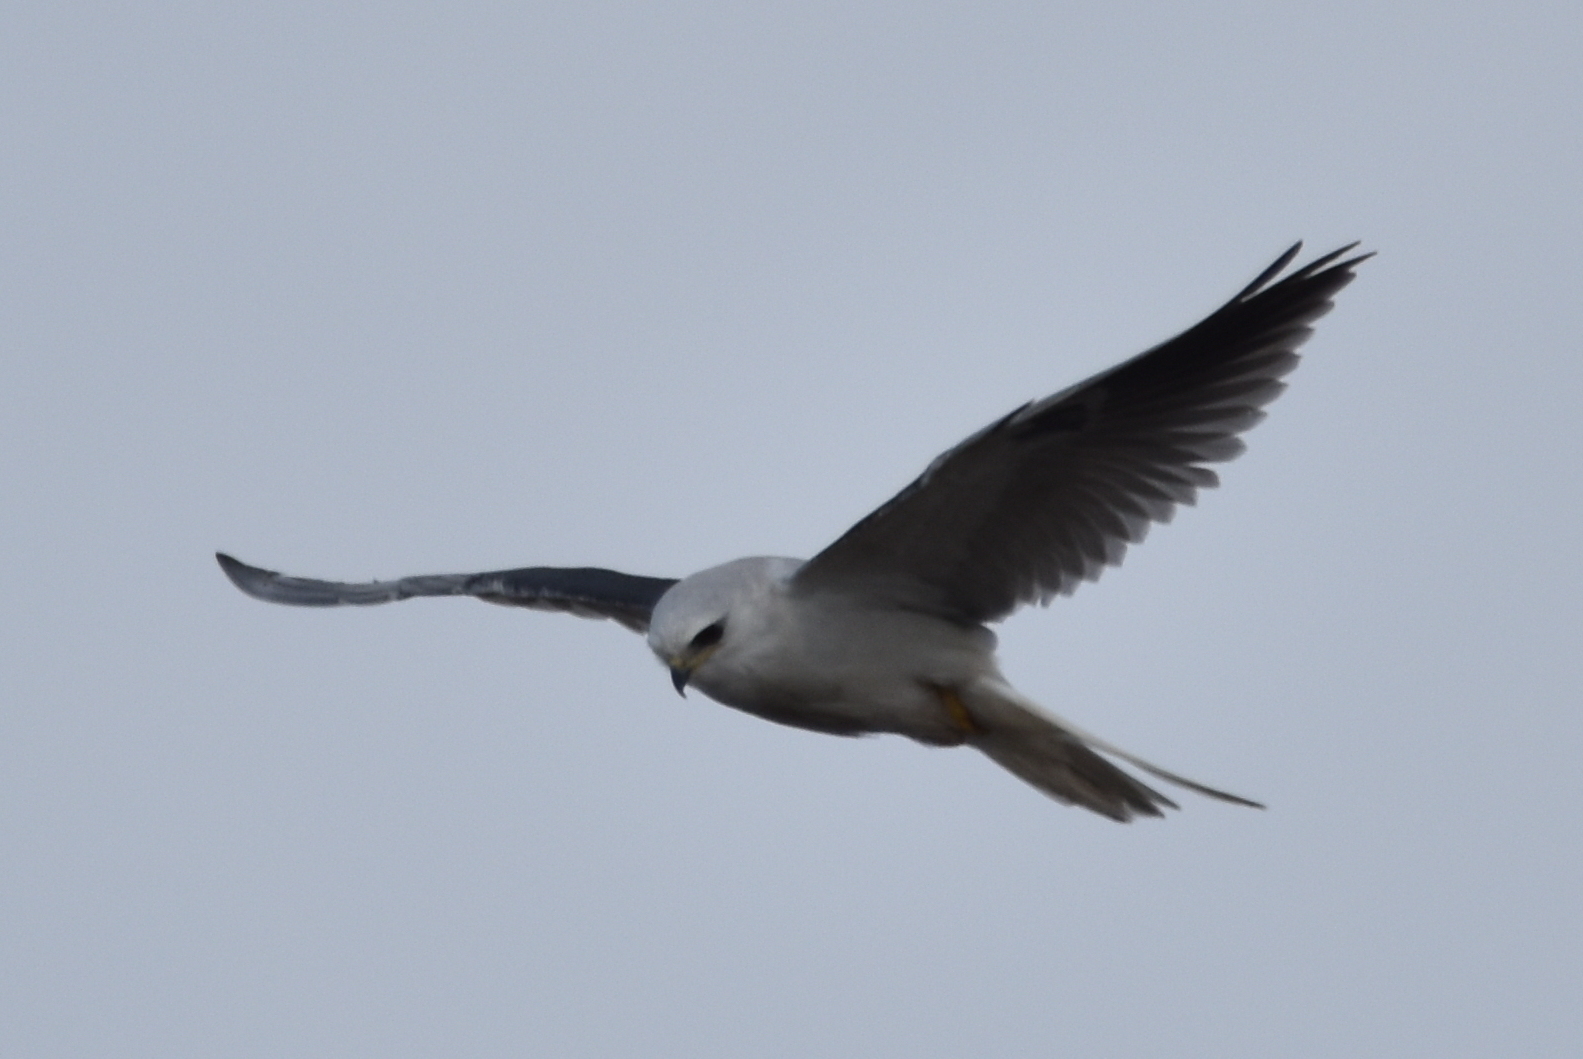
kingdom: Animalia
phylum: Chordata
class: Aves
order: Accipitriformes
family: Accipitridae
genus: Elanus
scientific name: Elanus leucurus
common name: White-tailed kite
